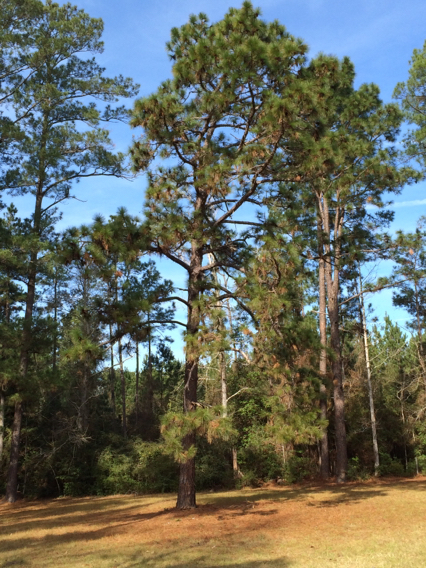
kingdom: Plantae
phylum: Tracheophyta
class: Pinopsida
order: Pinales
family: Pinaceae
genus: Pinus
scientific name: Pinus taeda
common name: Loblolly pine
